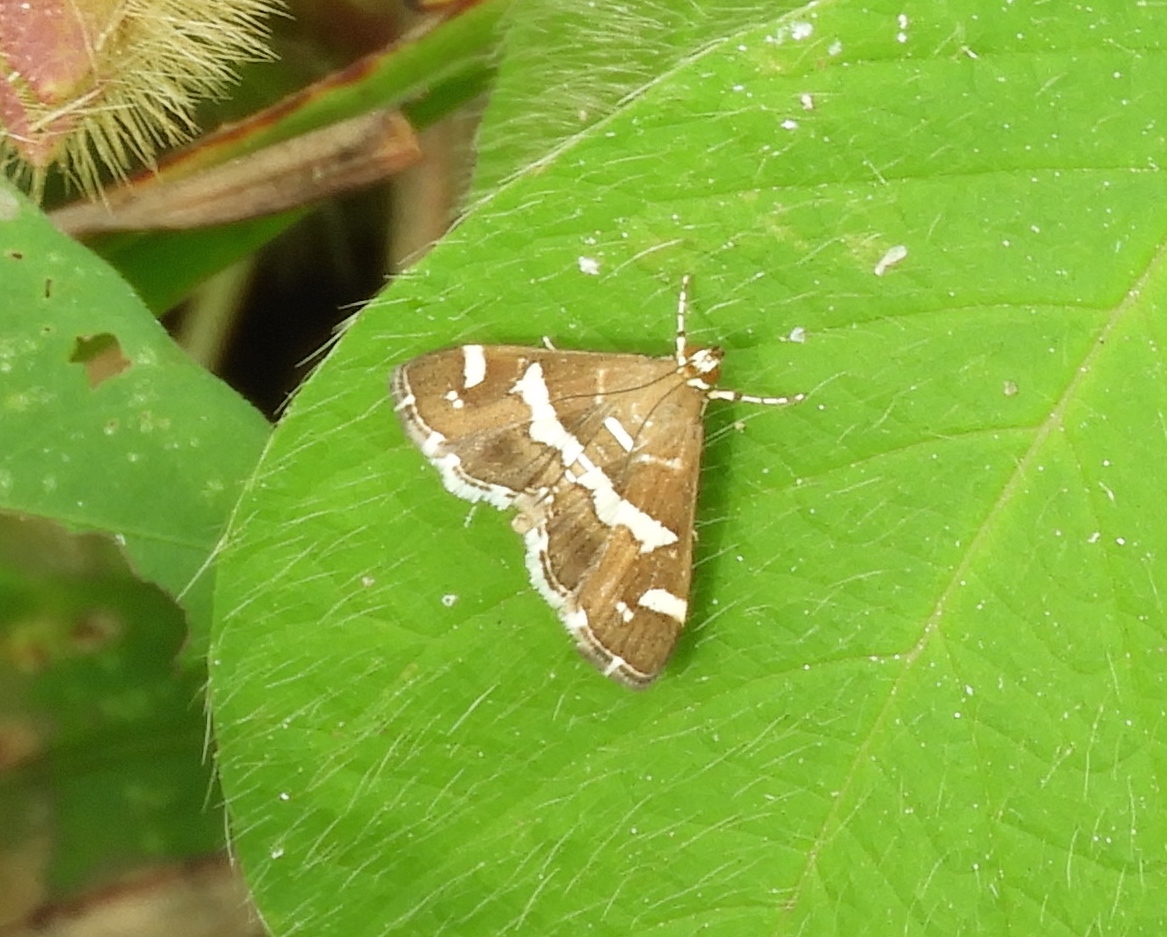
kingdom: Animalia
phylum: Arthropoda
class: Insecta
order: Lepidoptera
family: Crambidae
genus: Spoladea
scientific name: Spoladea recurvalis
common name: Beet webworm moth
